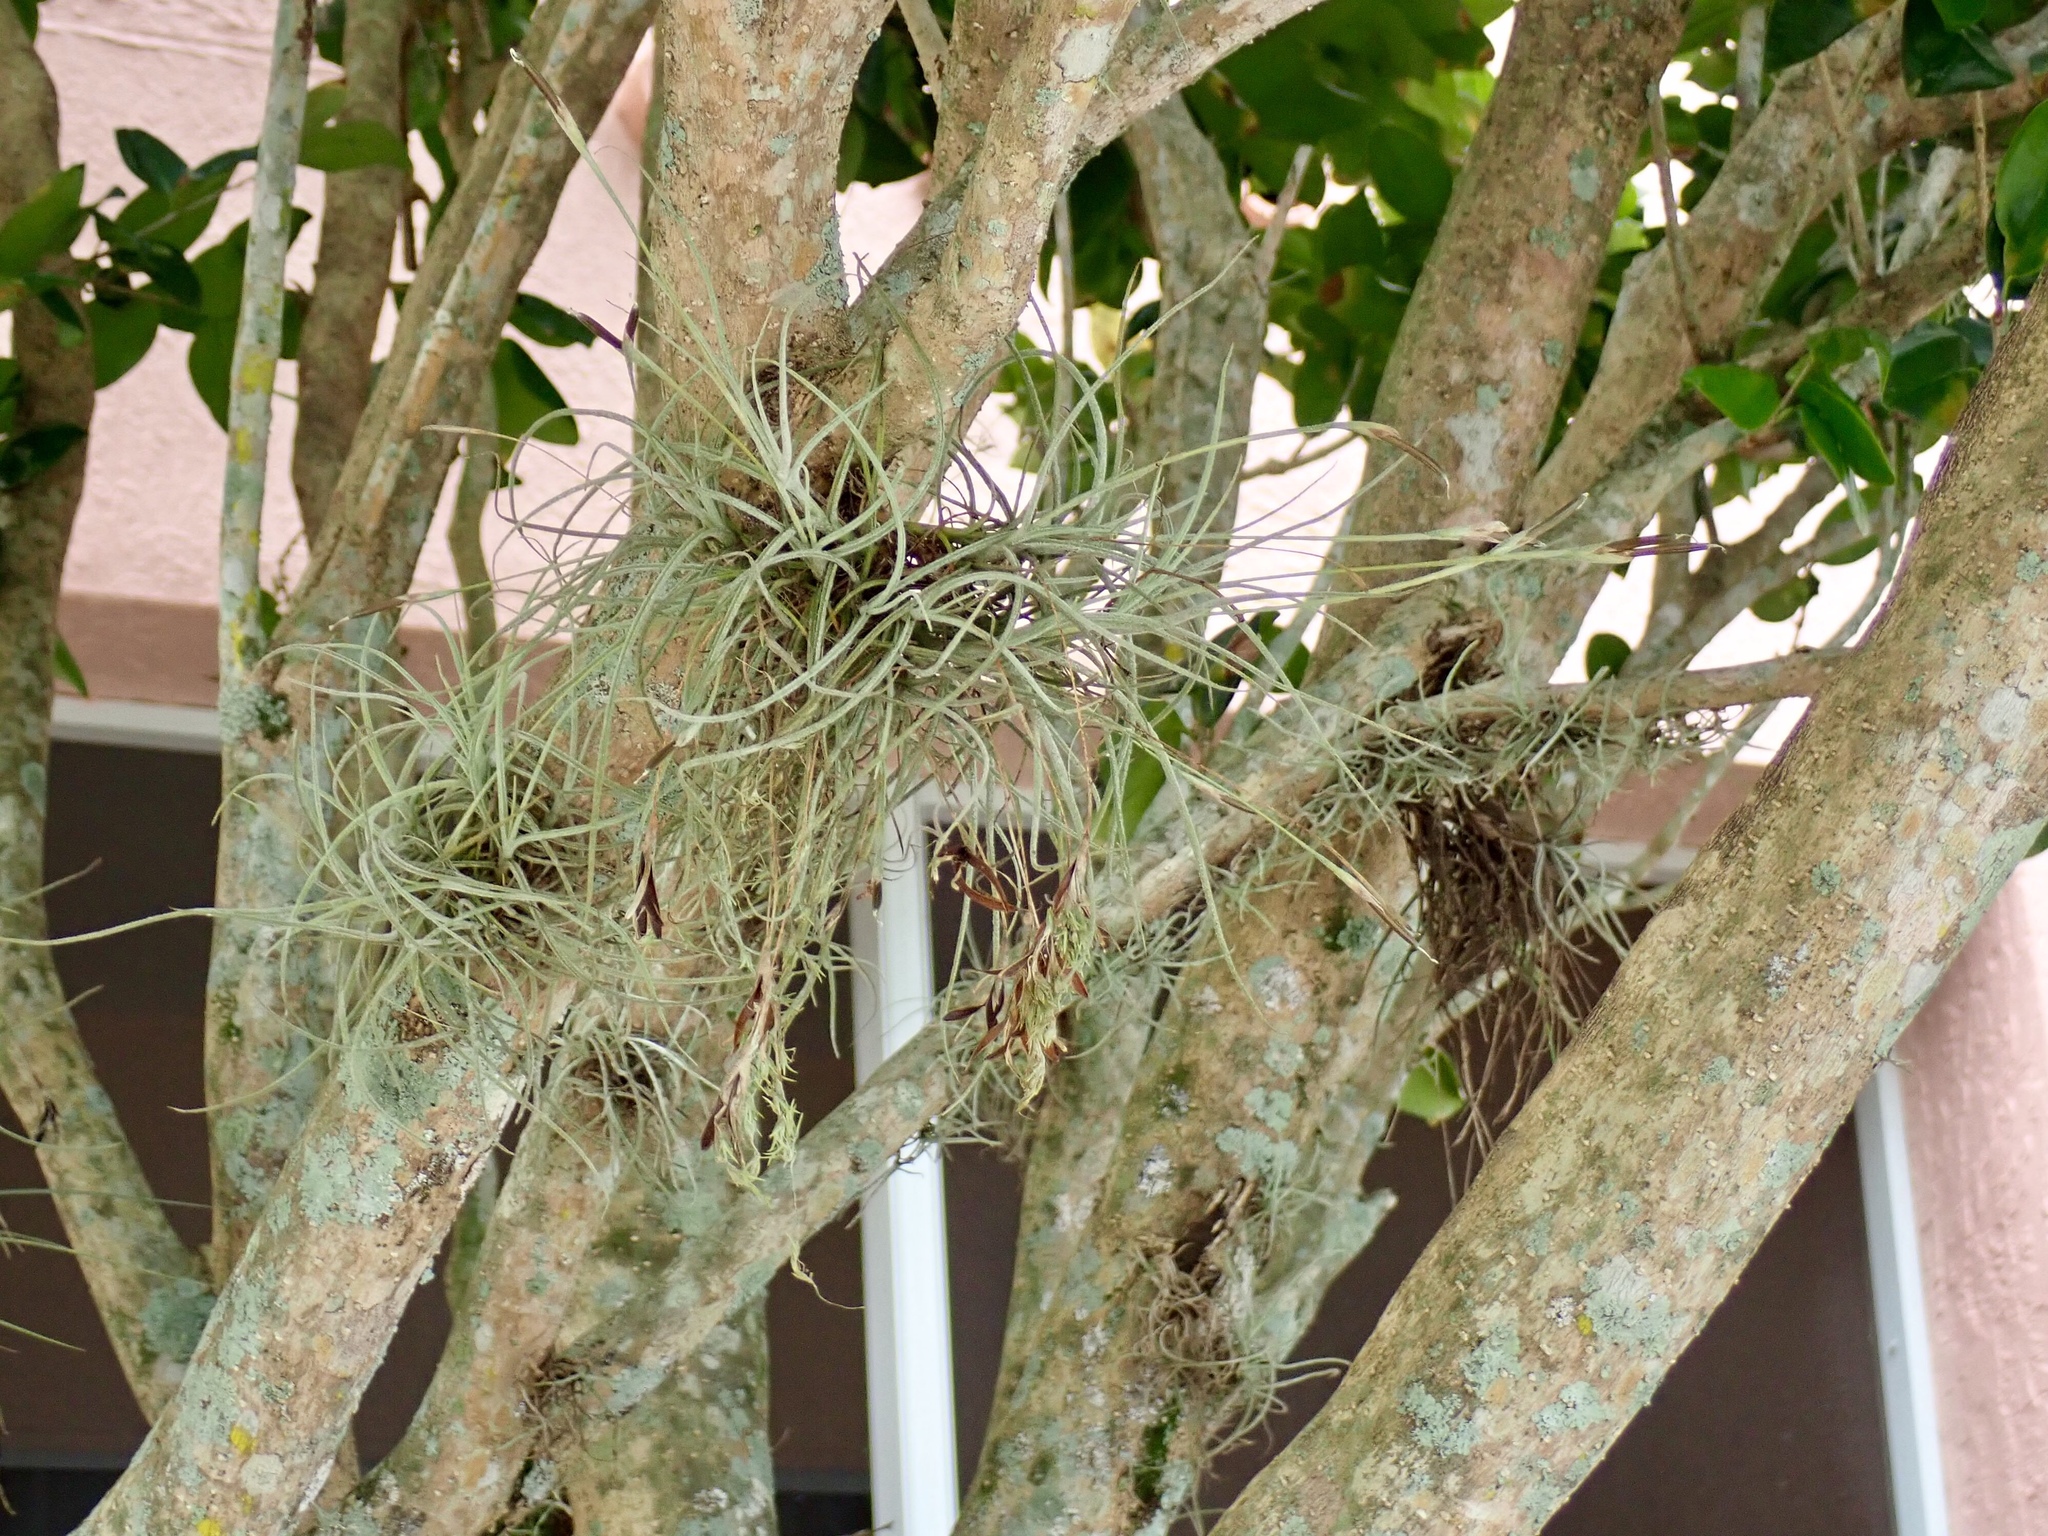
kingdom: Plantae
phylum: Tracheophyta
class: Liliopsida
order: Poales
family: Bromeliaceae
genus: Tillandsia
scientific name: Tillandsia recurvata
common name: Small ballmoss
